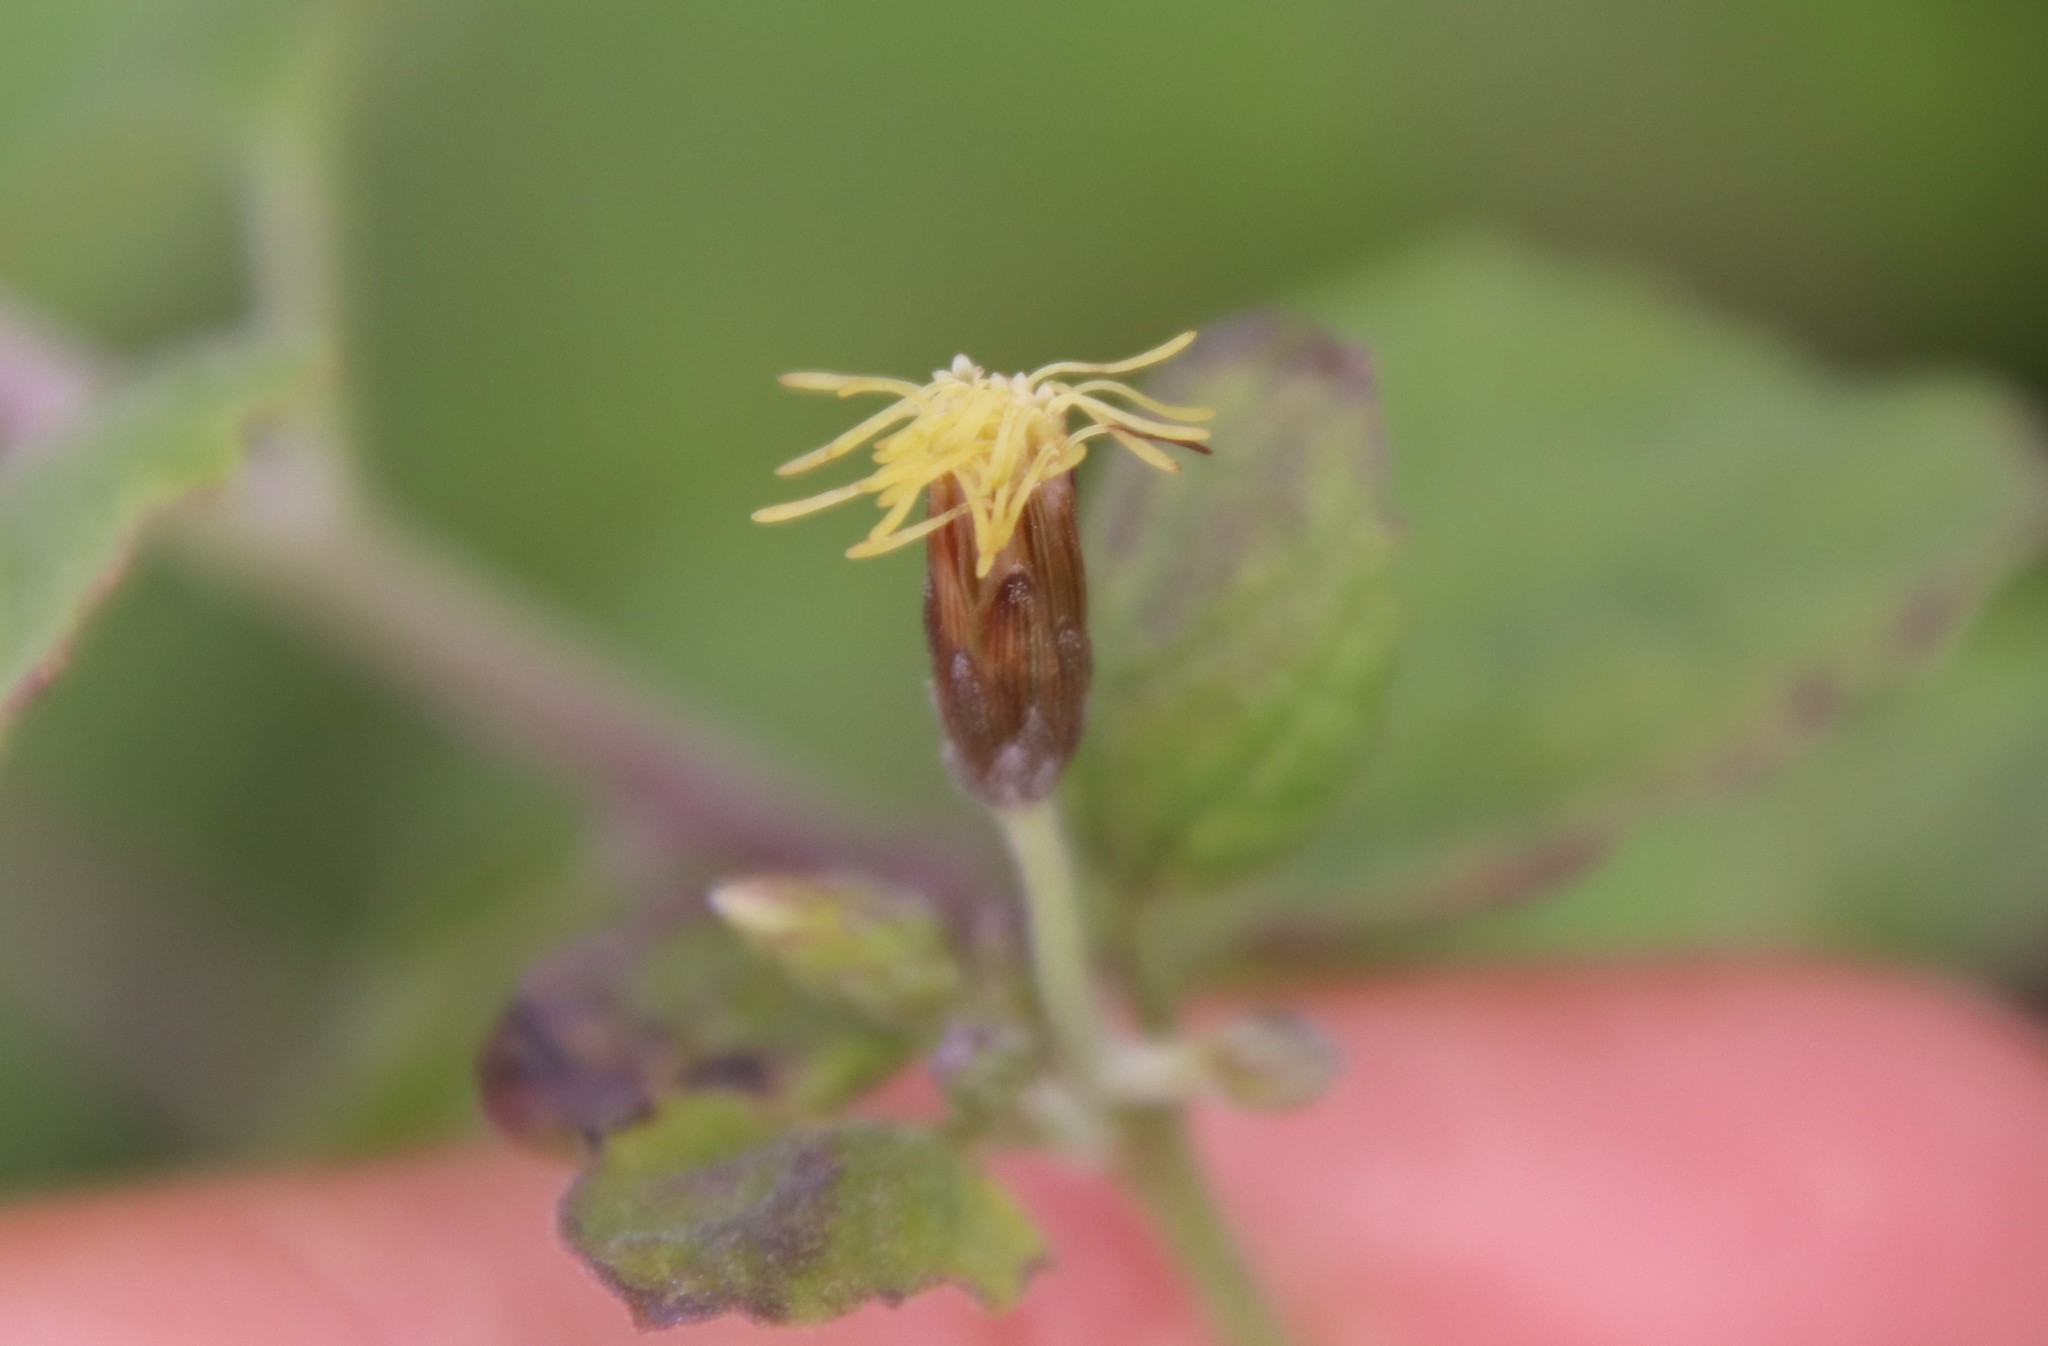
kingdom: Plantae
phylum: Tracheophyta
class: Magnoliopsida
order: Asterales
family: Asteraceae
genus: Brickellia
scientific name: Brickellia californica
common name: California brickellbush
